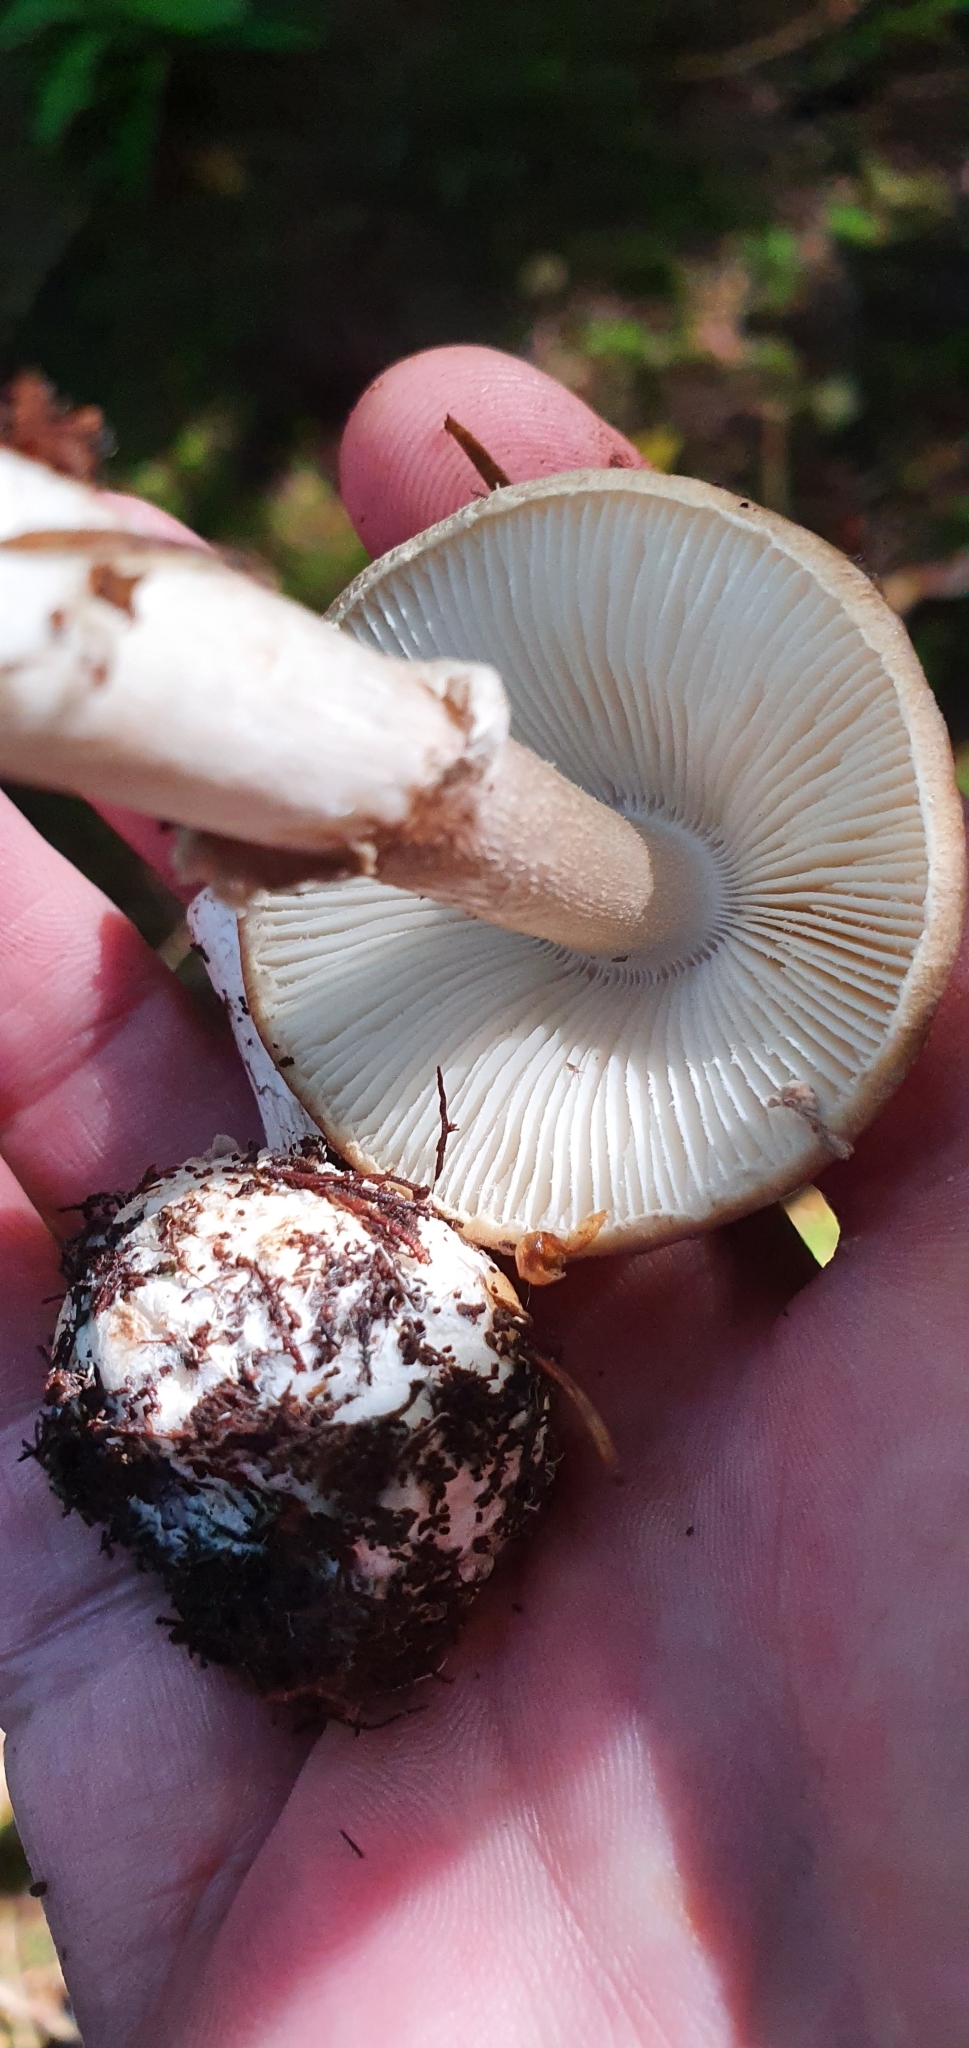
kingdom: Fungi
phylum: Basidiomycota
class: Agaricomycetes
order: Agaricales
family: Amanitaceae
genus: Amanita
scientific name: Amanita porphyria
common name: Grey veiled amanita
